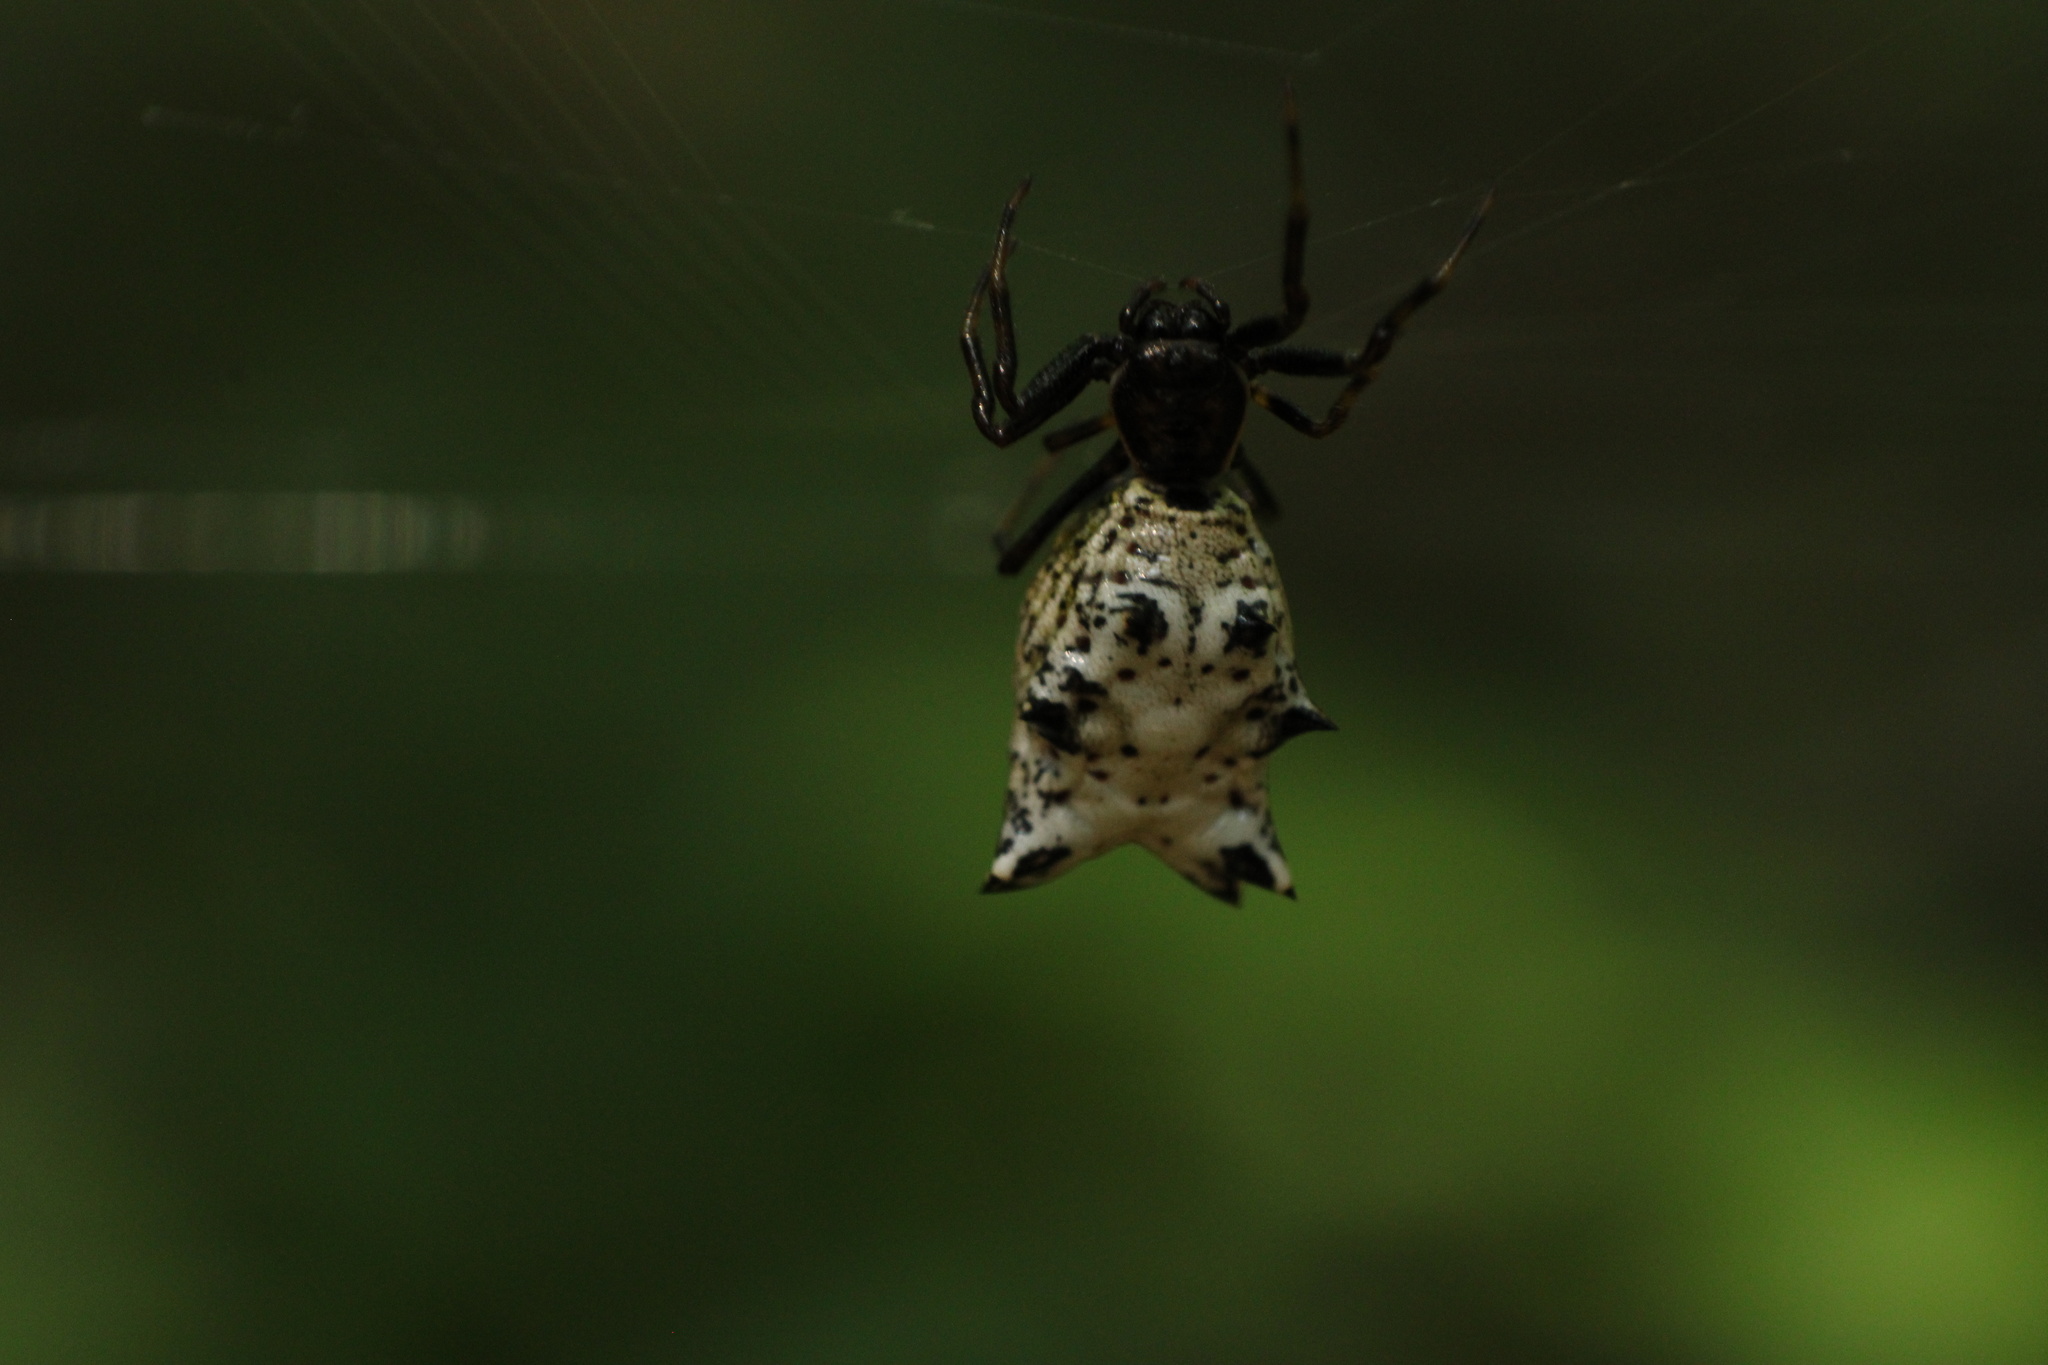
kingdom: Animalia
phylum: Arthropoda
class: Arachnida
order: Araneae
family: Araneidae
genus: Micrathena
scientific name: Micrathena gracilis
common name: Orb weavers
